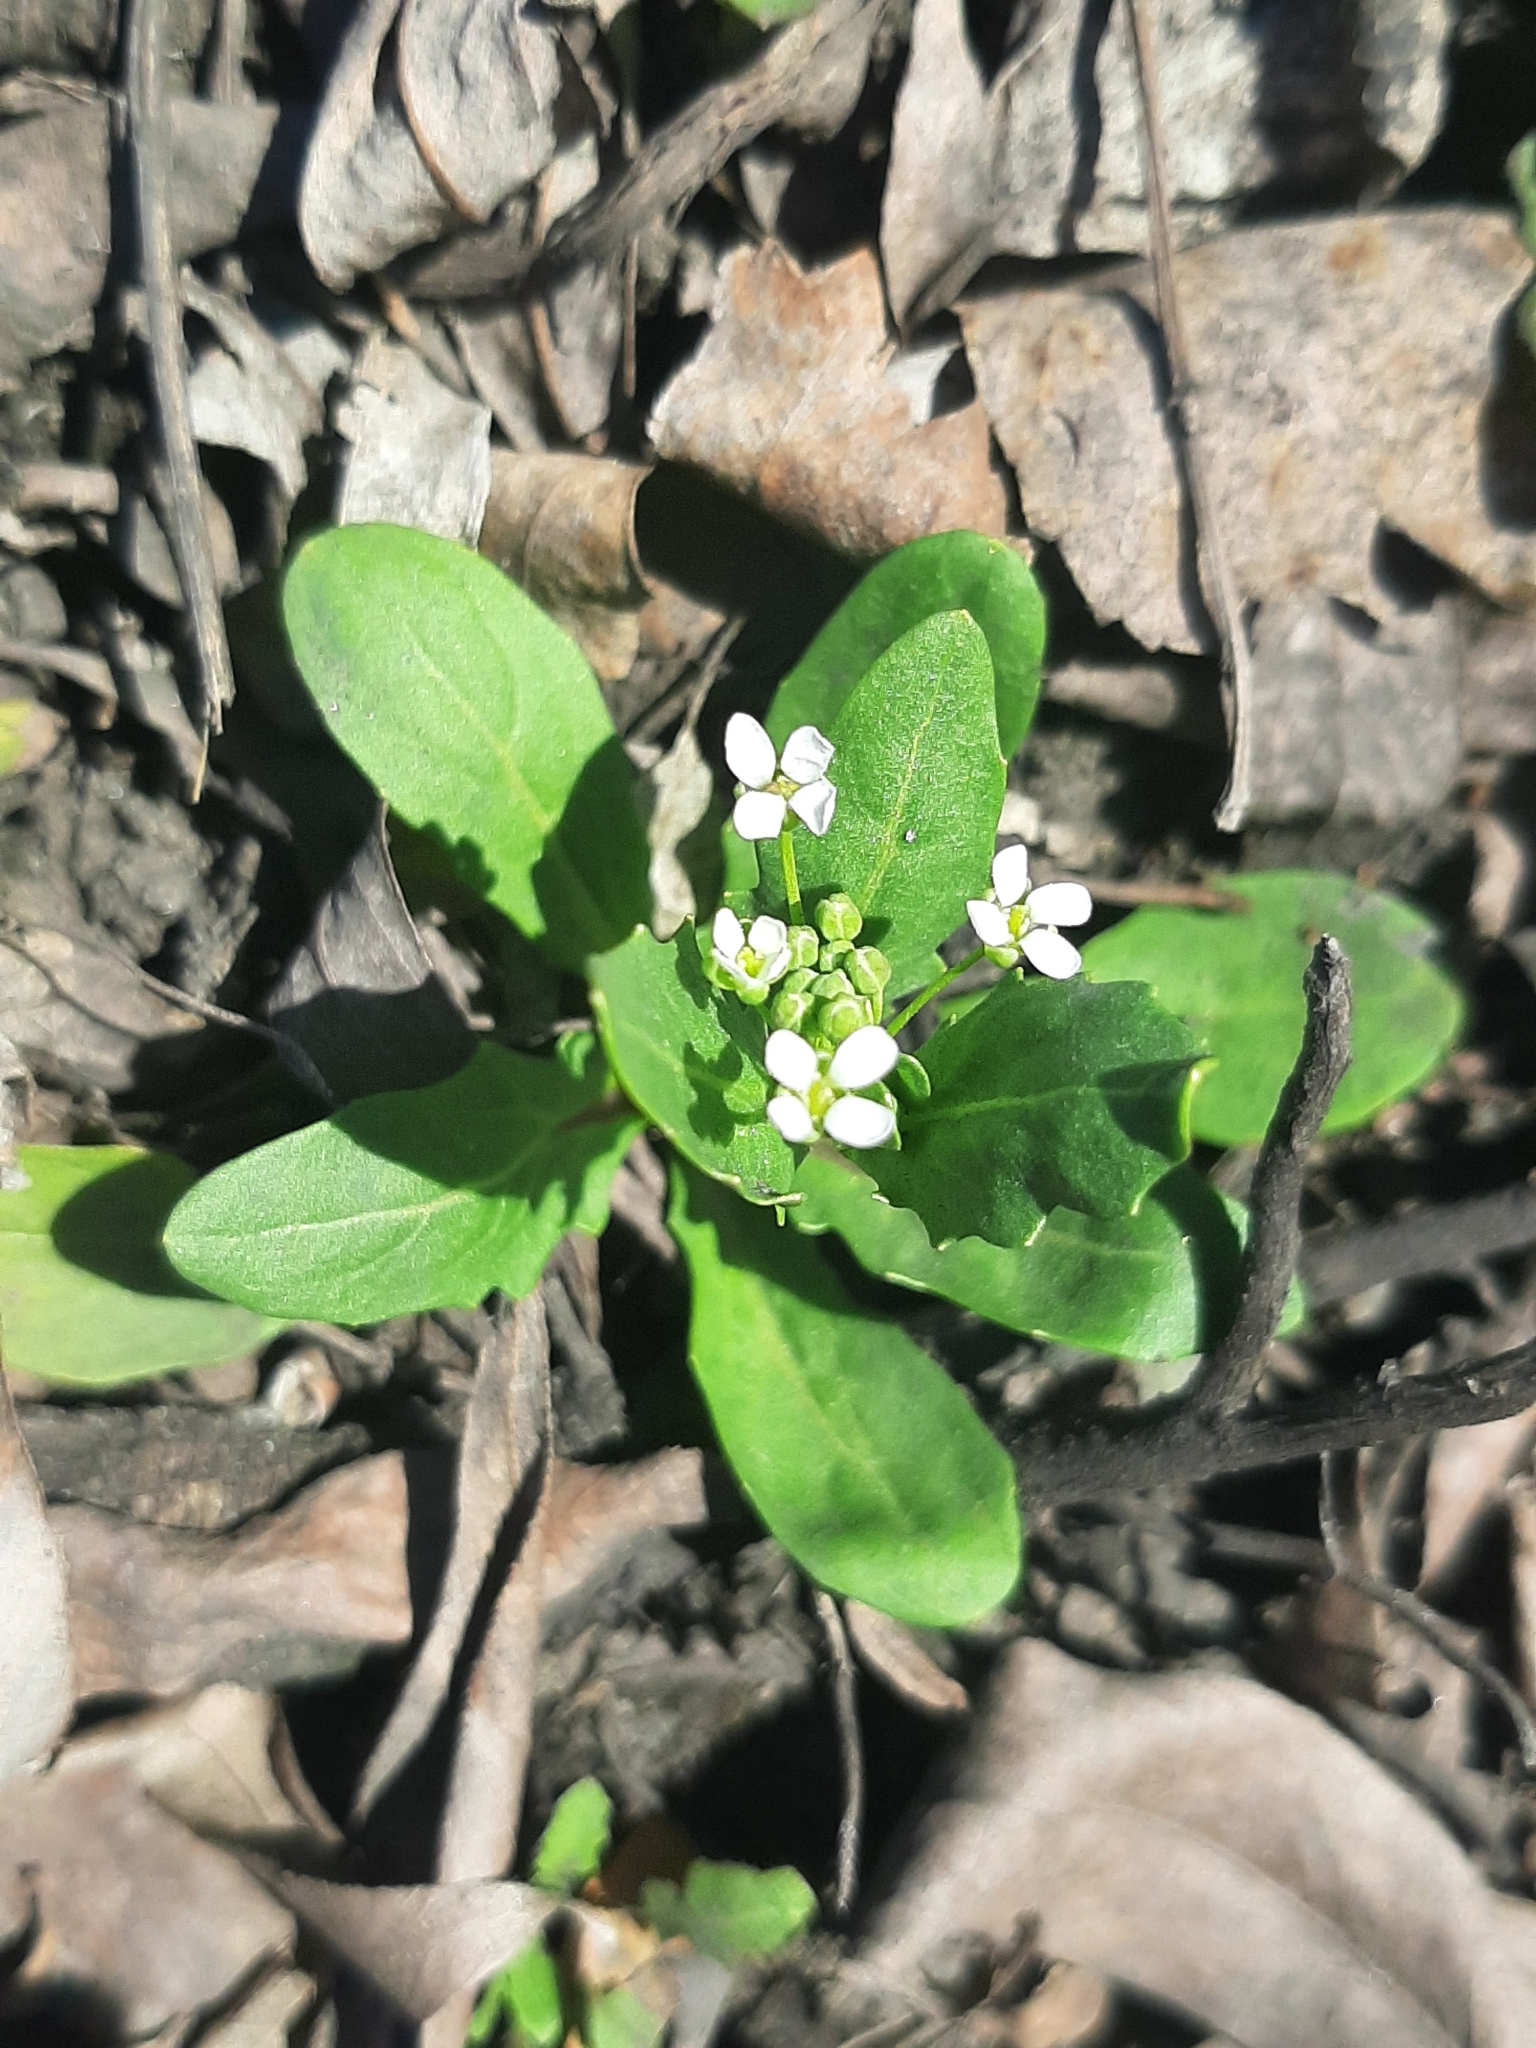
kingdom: Plantae
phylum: Tracheophyta
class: Magnoliopsida
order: Brassicales
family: Brassicaceae
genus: Thlaspi
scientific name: Thlaspi arvense
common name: Field pennycress
